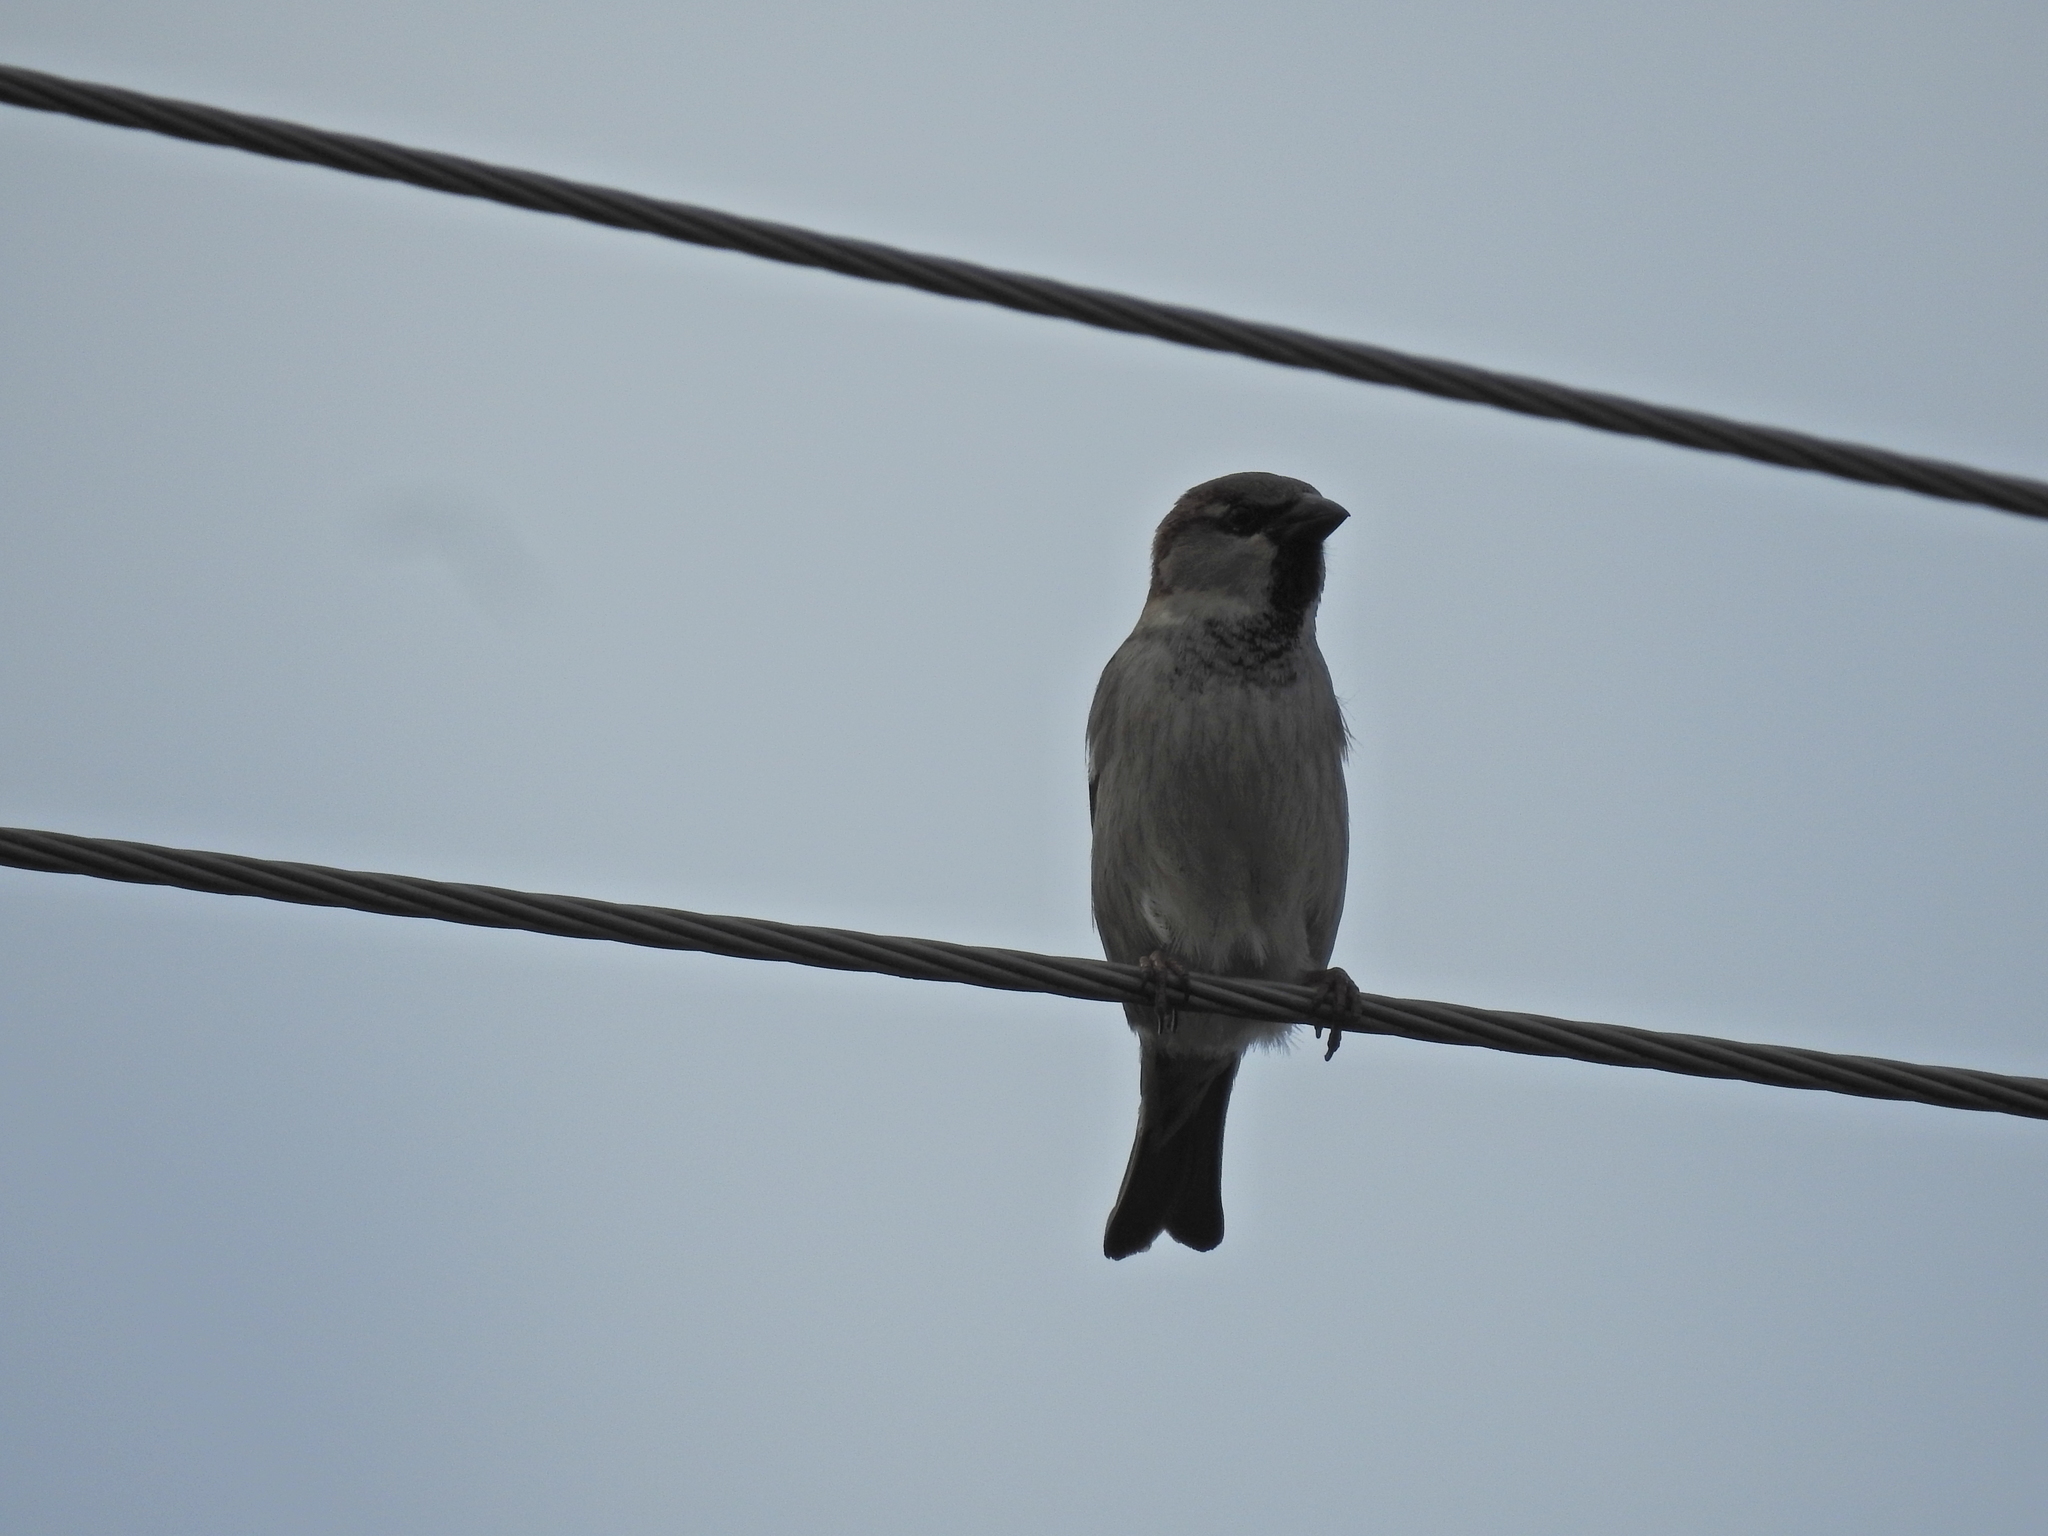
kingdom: Animalia
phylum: Chordata
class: Aves
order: Passeriformes
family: Passeridae
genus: Passer
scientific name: Passer domesticus
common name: House sparrow
